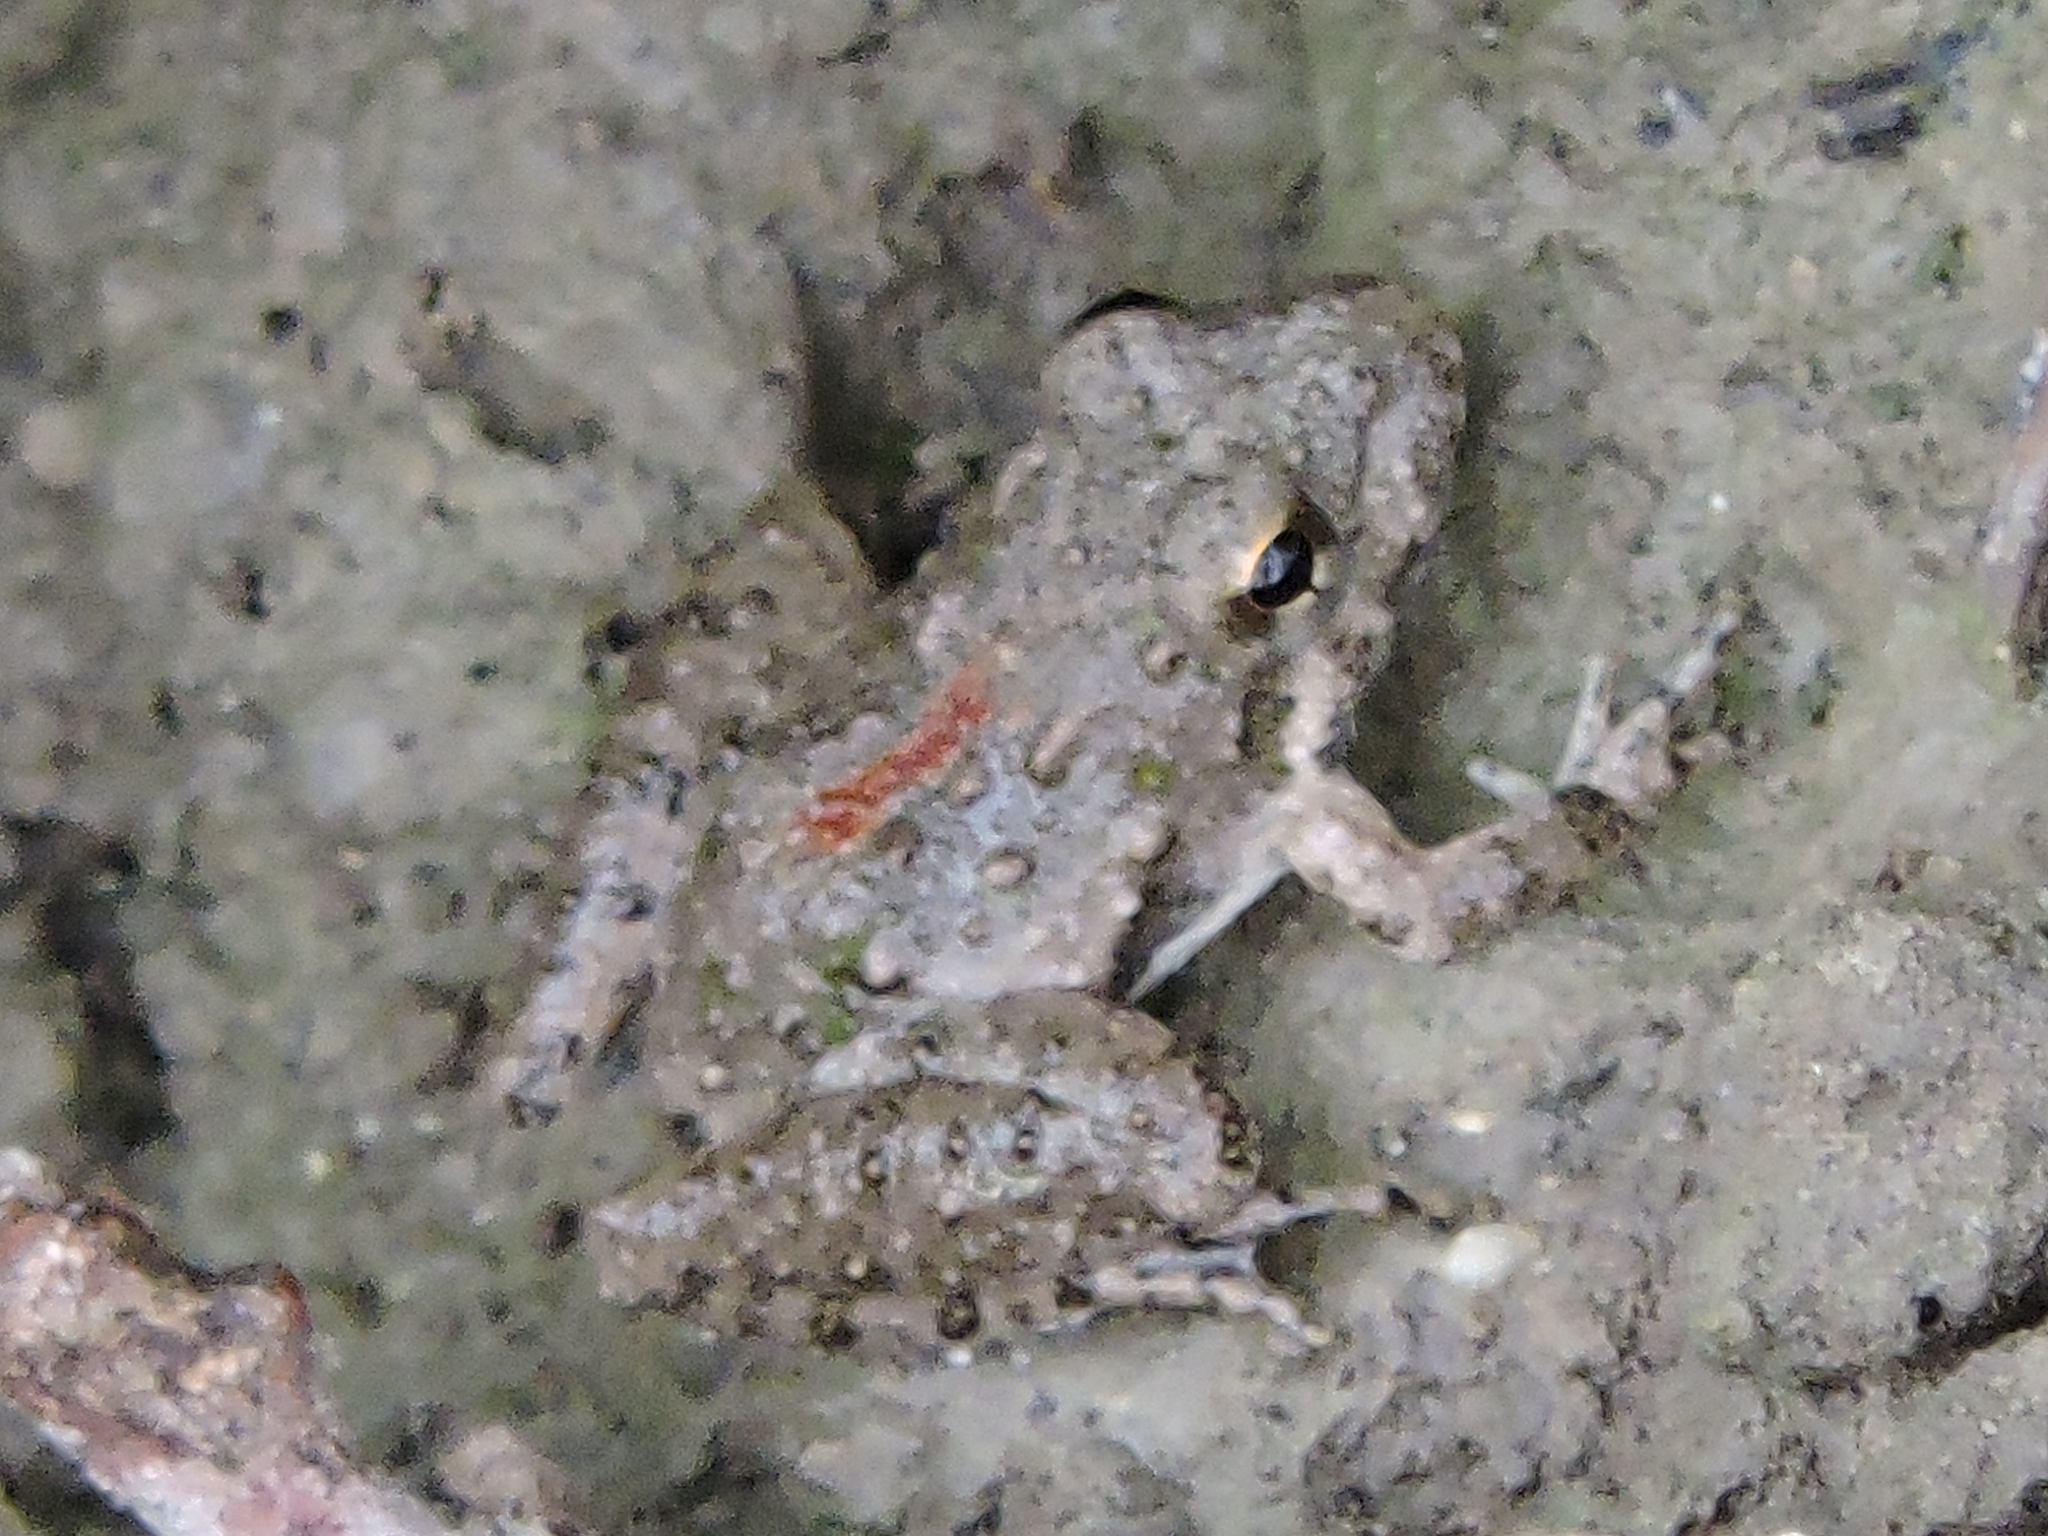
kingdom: Animalia
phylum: Chordata
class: Amphibia
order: Anura
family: Hylidae
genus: Acris
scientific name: Acris blanchardi
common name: Blanchard's cricket frog
